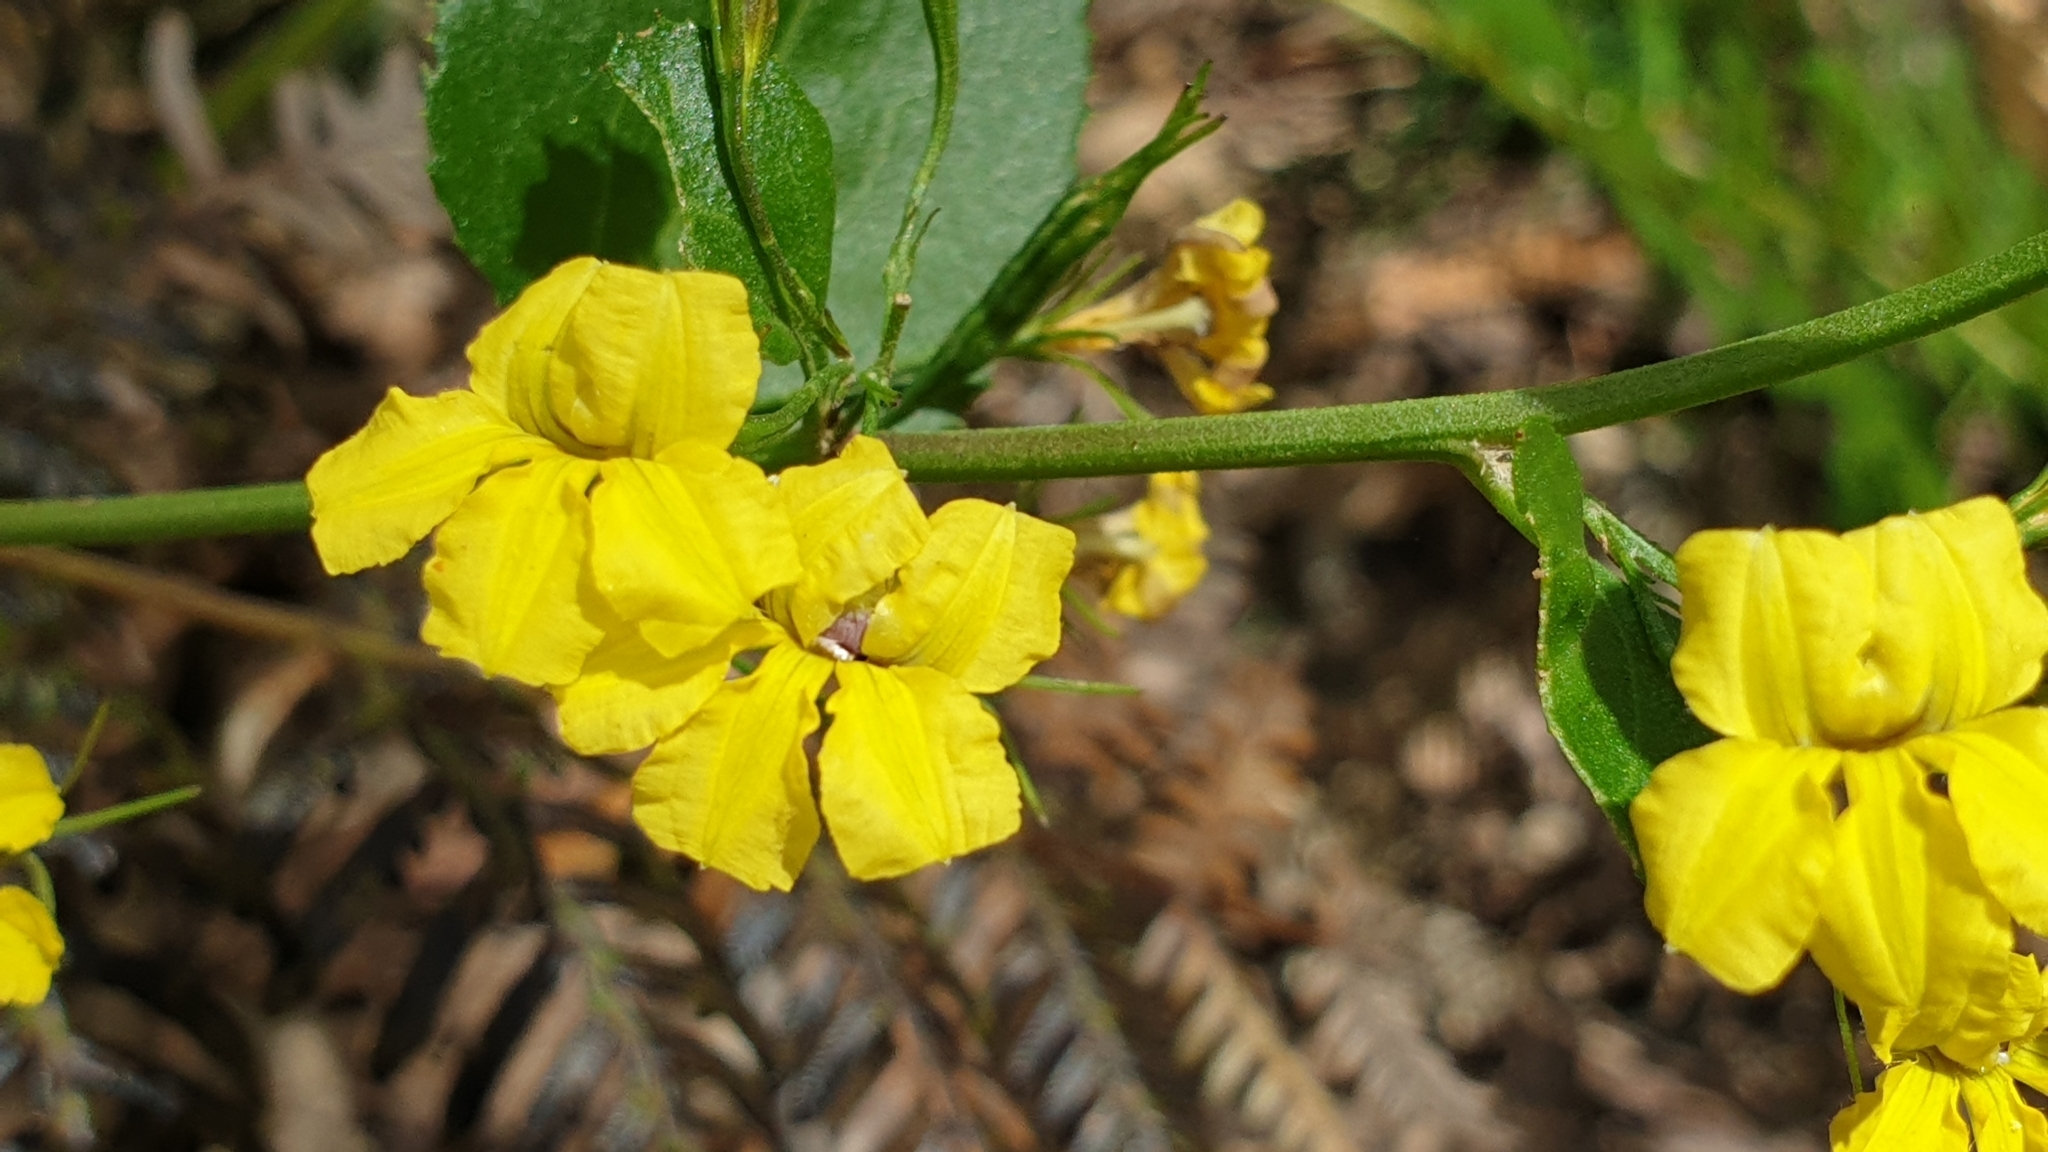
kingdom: Plantae
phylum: Tracheophyta
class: Magnoliopsida
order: Asterales
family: Goodeniaceae
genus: Goodenia
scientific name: Goodenia ovata
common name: Hop goodenia
